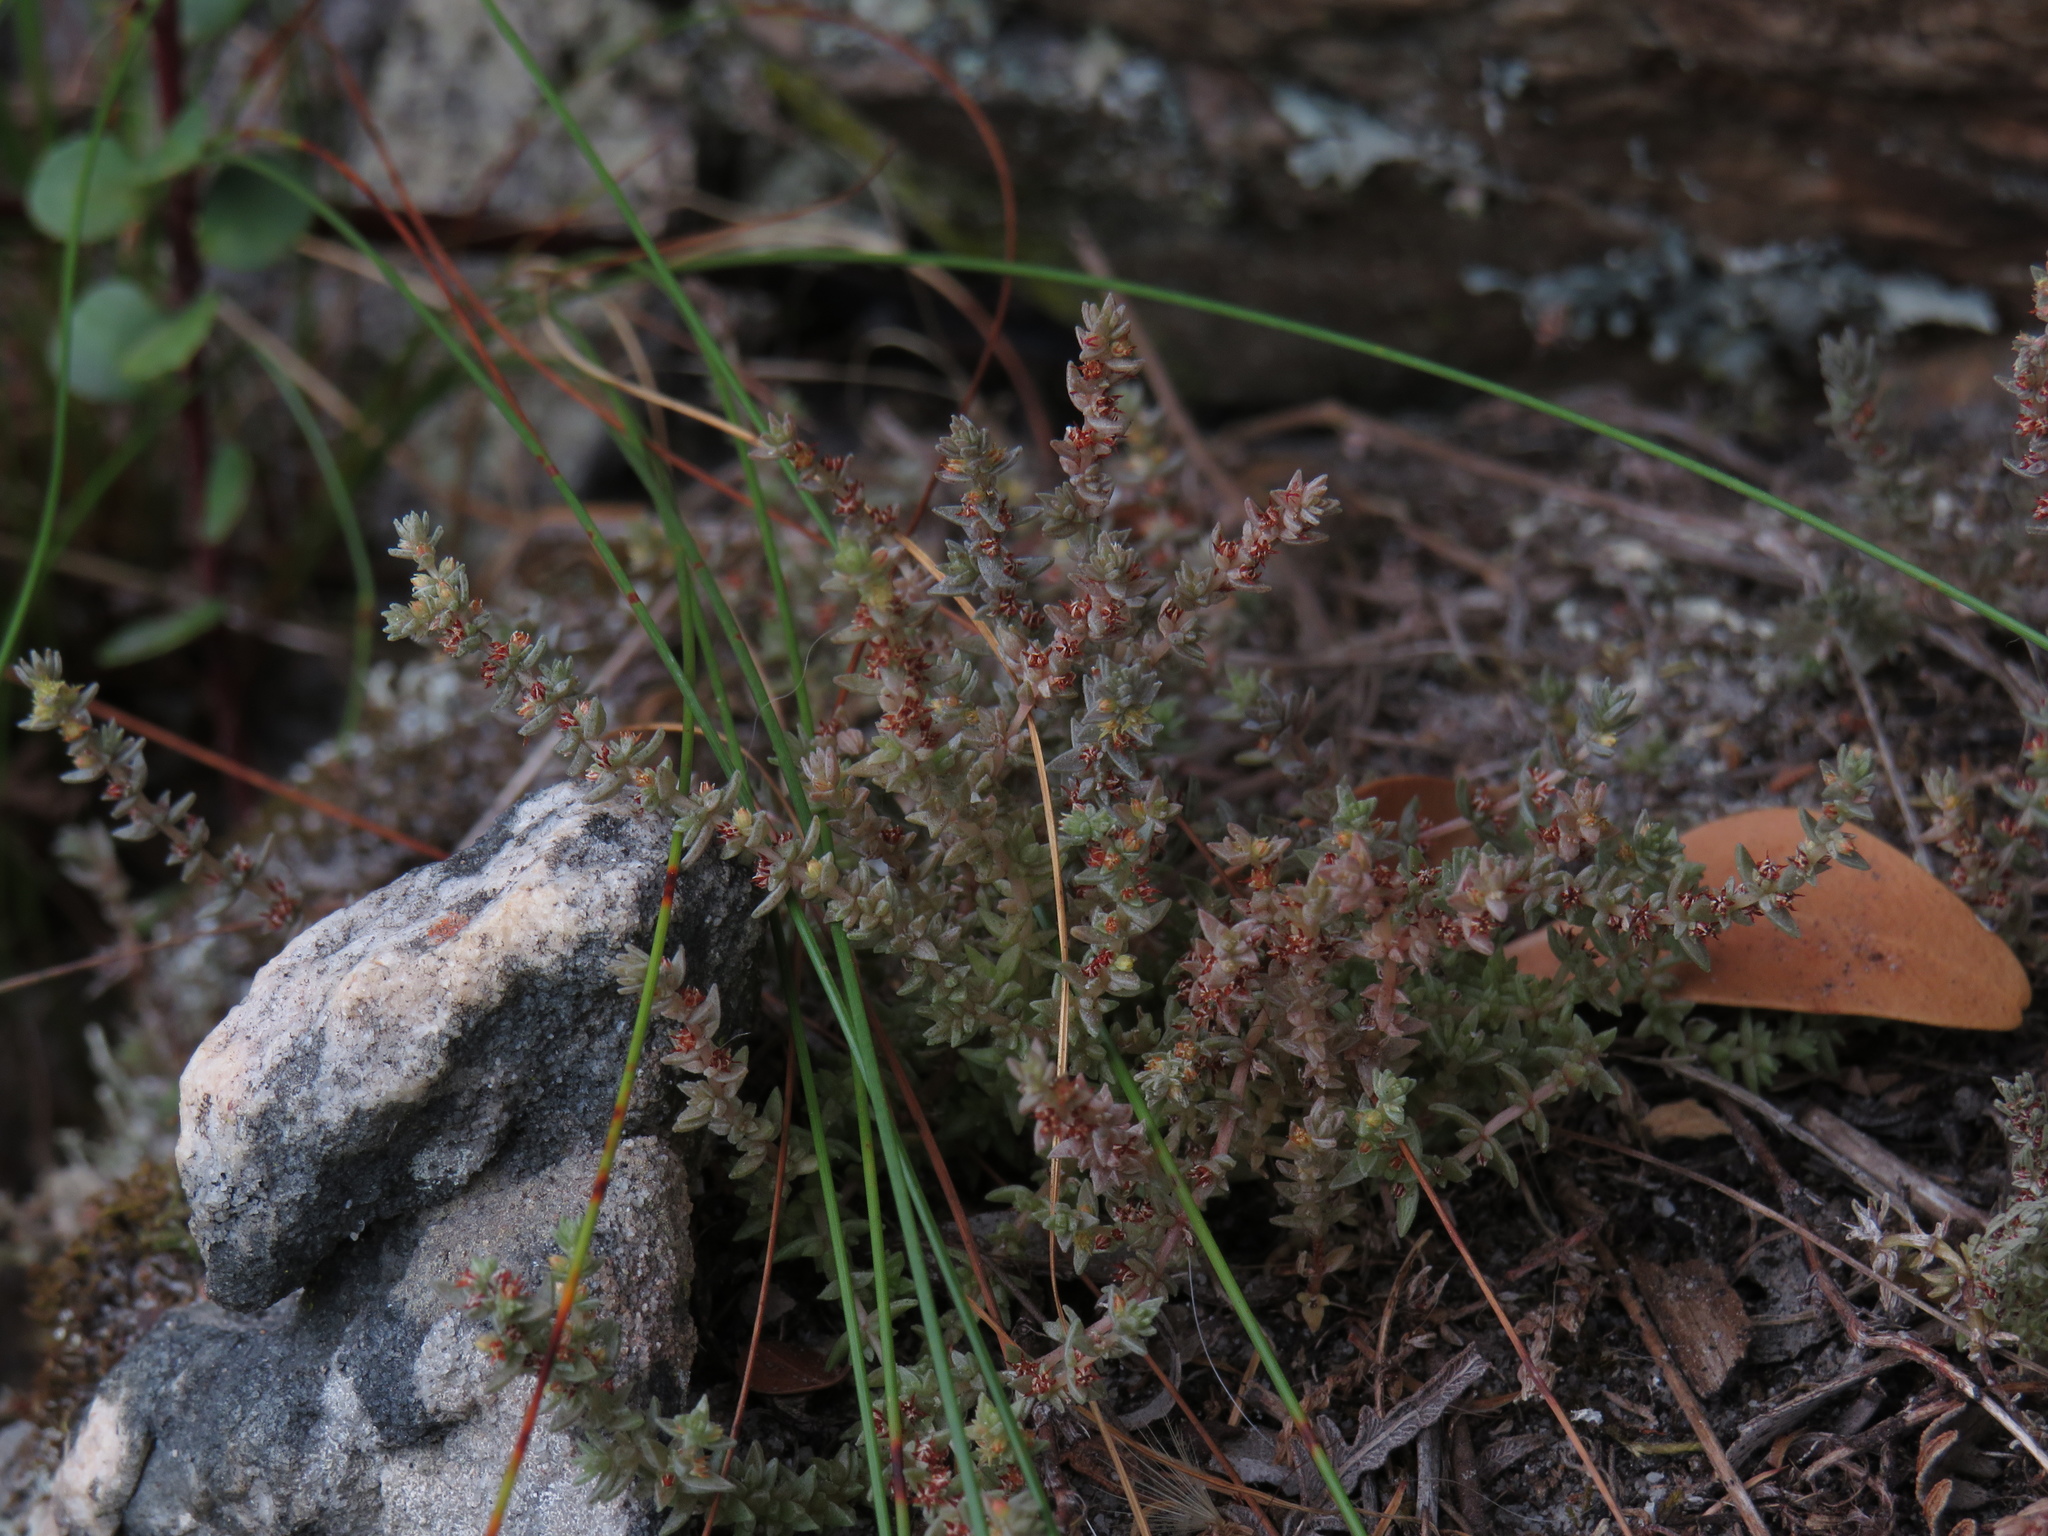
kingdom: Plantae
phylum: Tracheophyta
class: Magnoliopsida
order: Saxifragales
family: Crassulaceae
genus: Crassula
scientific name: Crassula lanceolata
